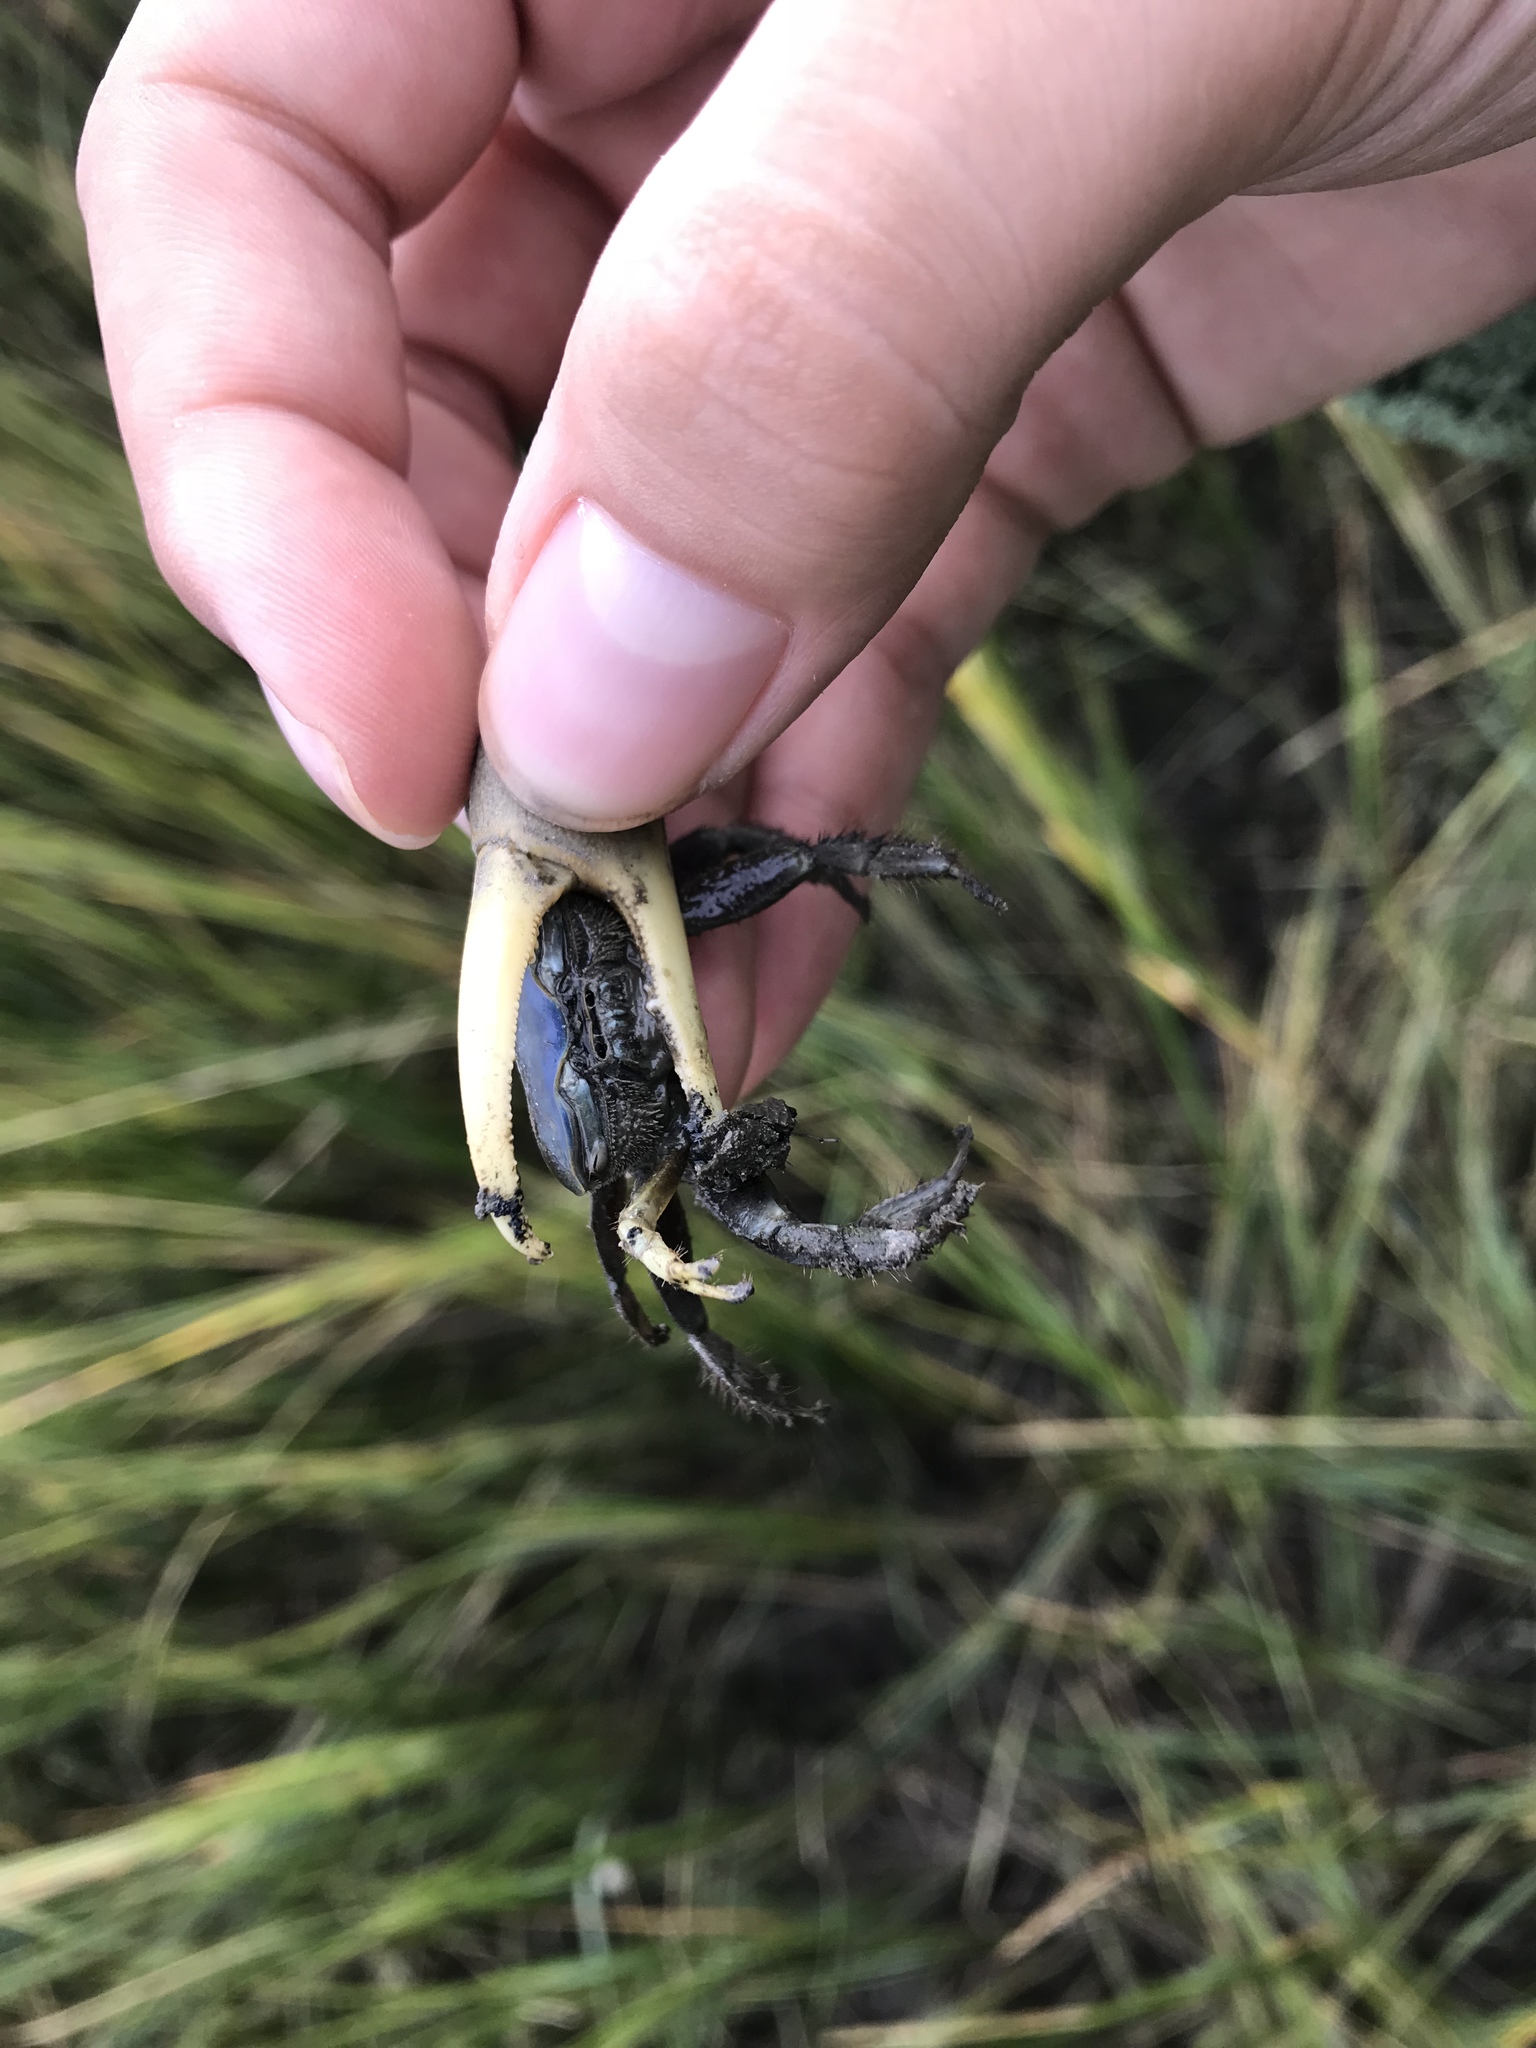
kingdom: Animalia
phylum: Arthropoda
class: Malacostraca
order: Decapoda
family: Ocypodidae
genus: Minuca
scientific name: Minuca pugnax
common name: Mud fiddler crab
